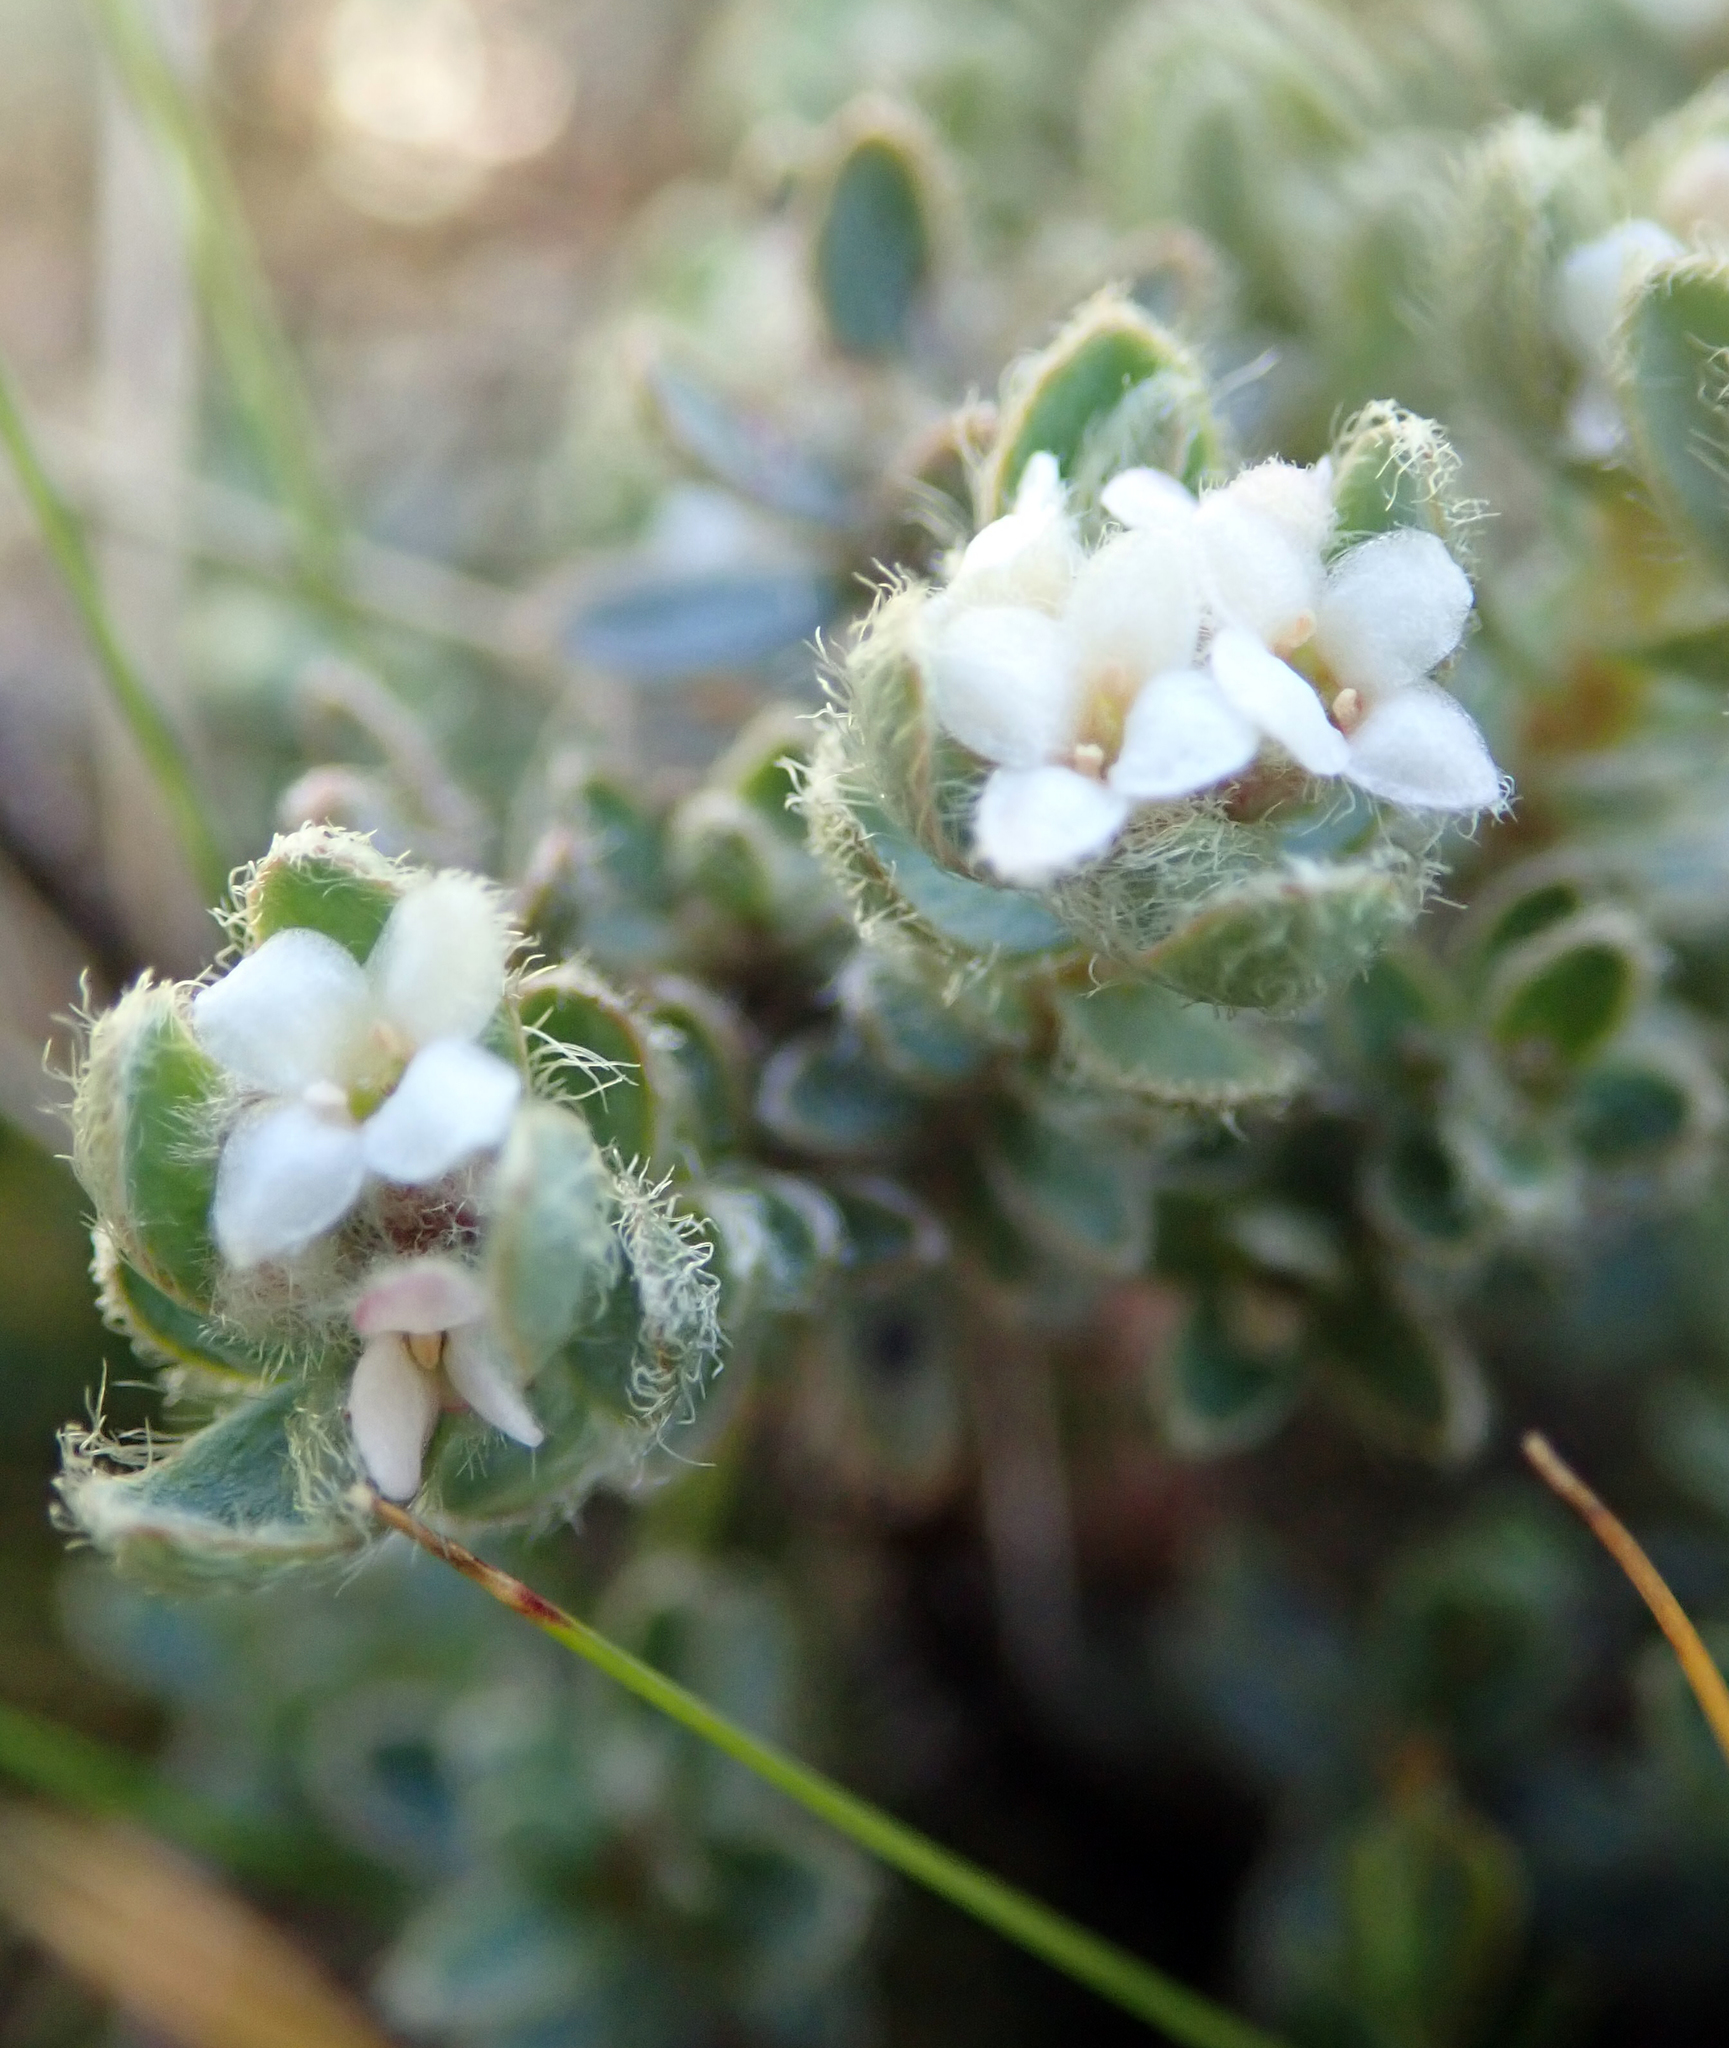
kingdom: Plantae
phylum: Tracheophyta
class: Magnoliopsida
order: Malvales
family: Thymelaeaceae
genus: Pimelea
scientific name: Pimelea mesoa
